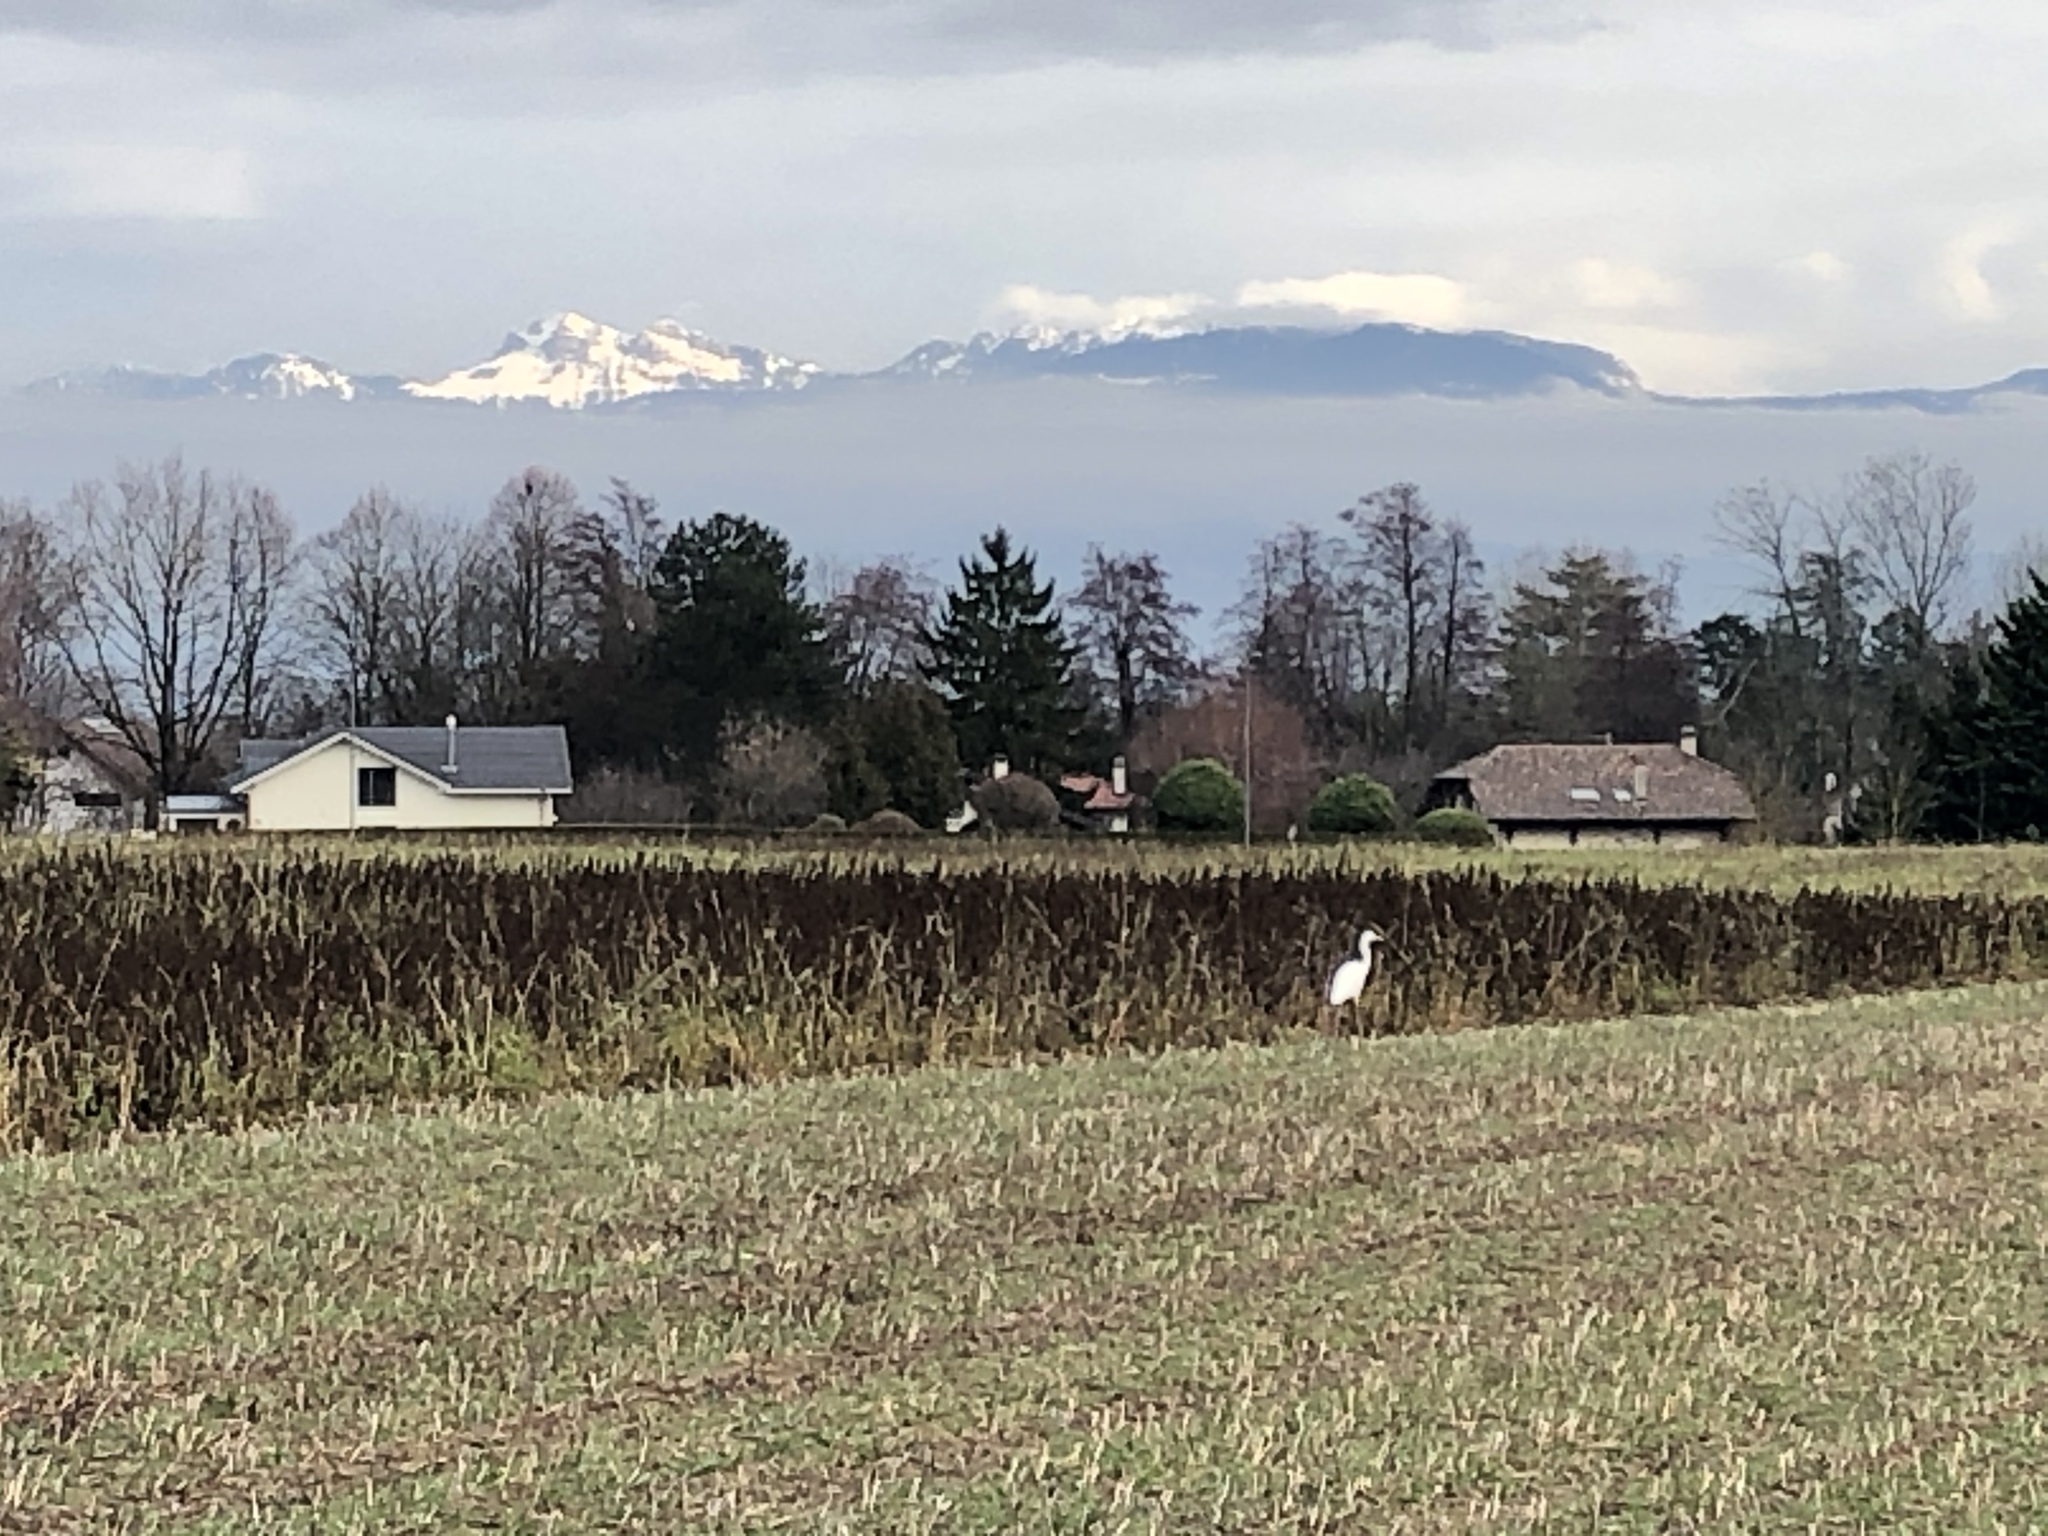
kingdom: Animalia
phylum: Chordata
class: Aves
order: Pelecaniformes
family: Ardeidae
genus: Ardea
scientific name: Ardea alba
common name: Great egret
